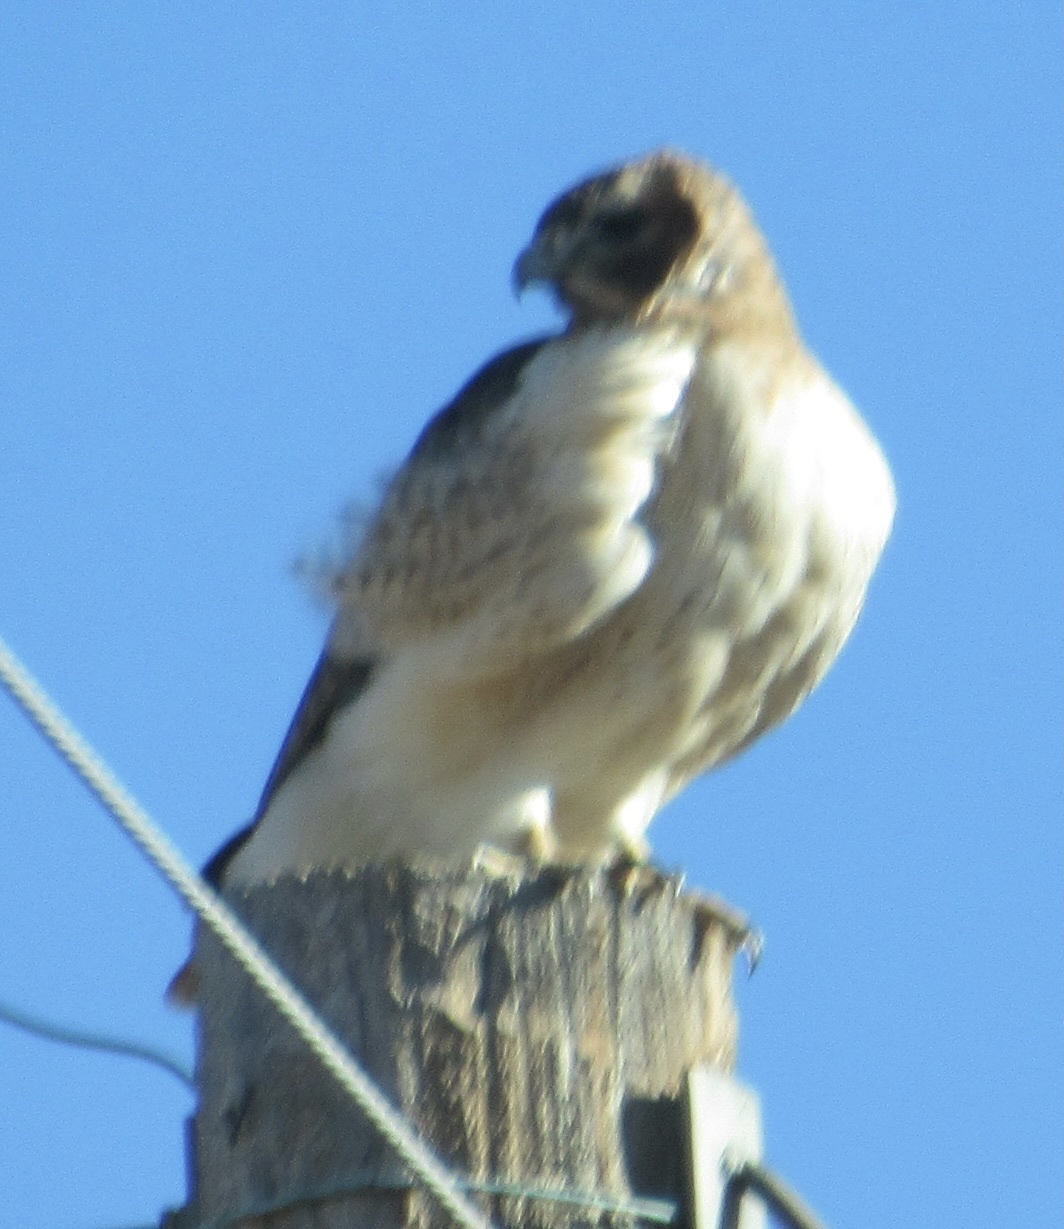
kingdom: Animalia
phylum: Chordata
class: Aves
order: Accipitriformes
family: Accipitridae
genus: Buteo
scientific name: Buteo jamaicensis
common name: Red-tailed hawk
